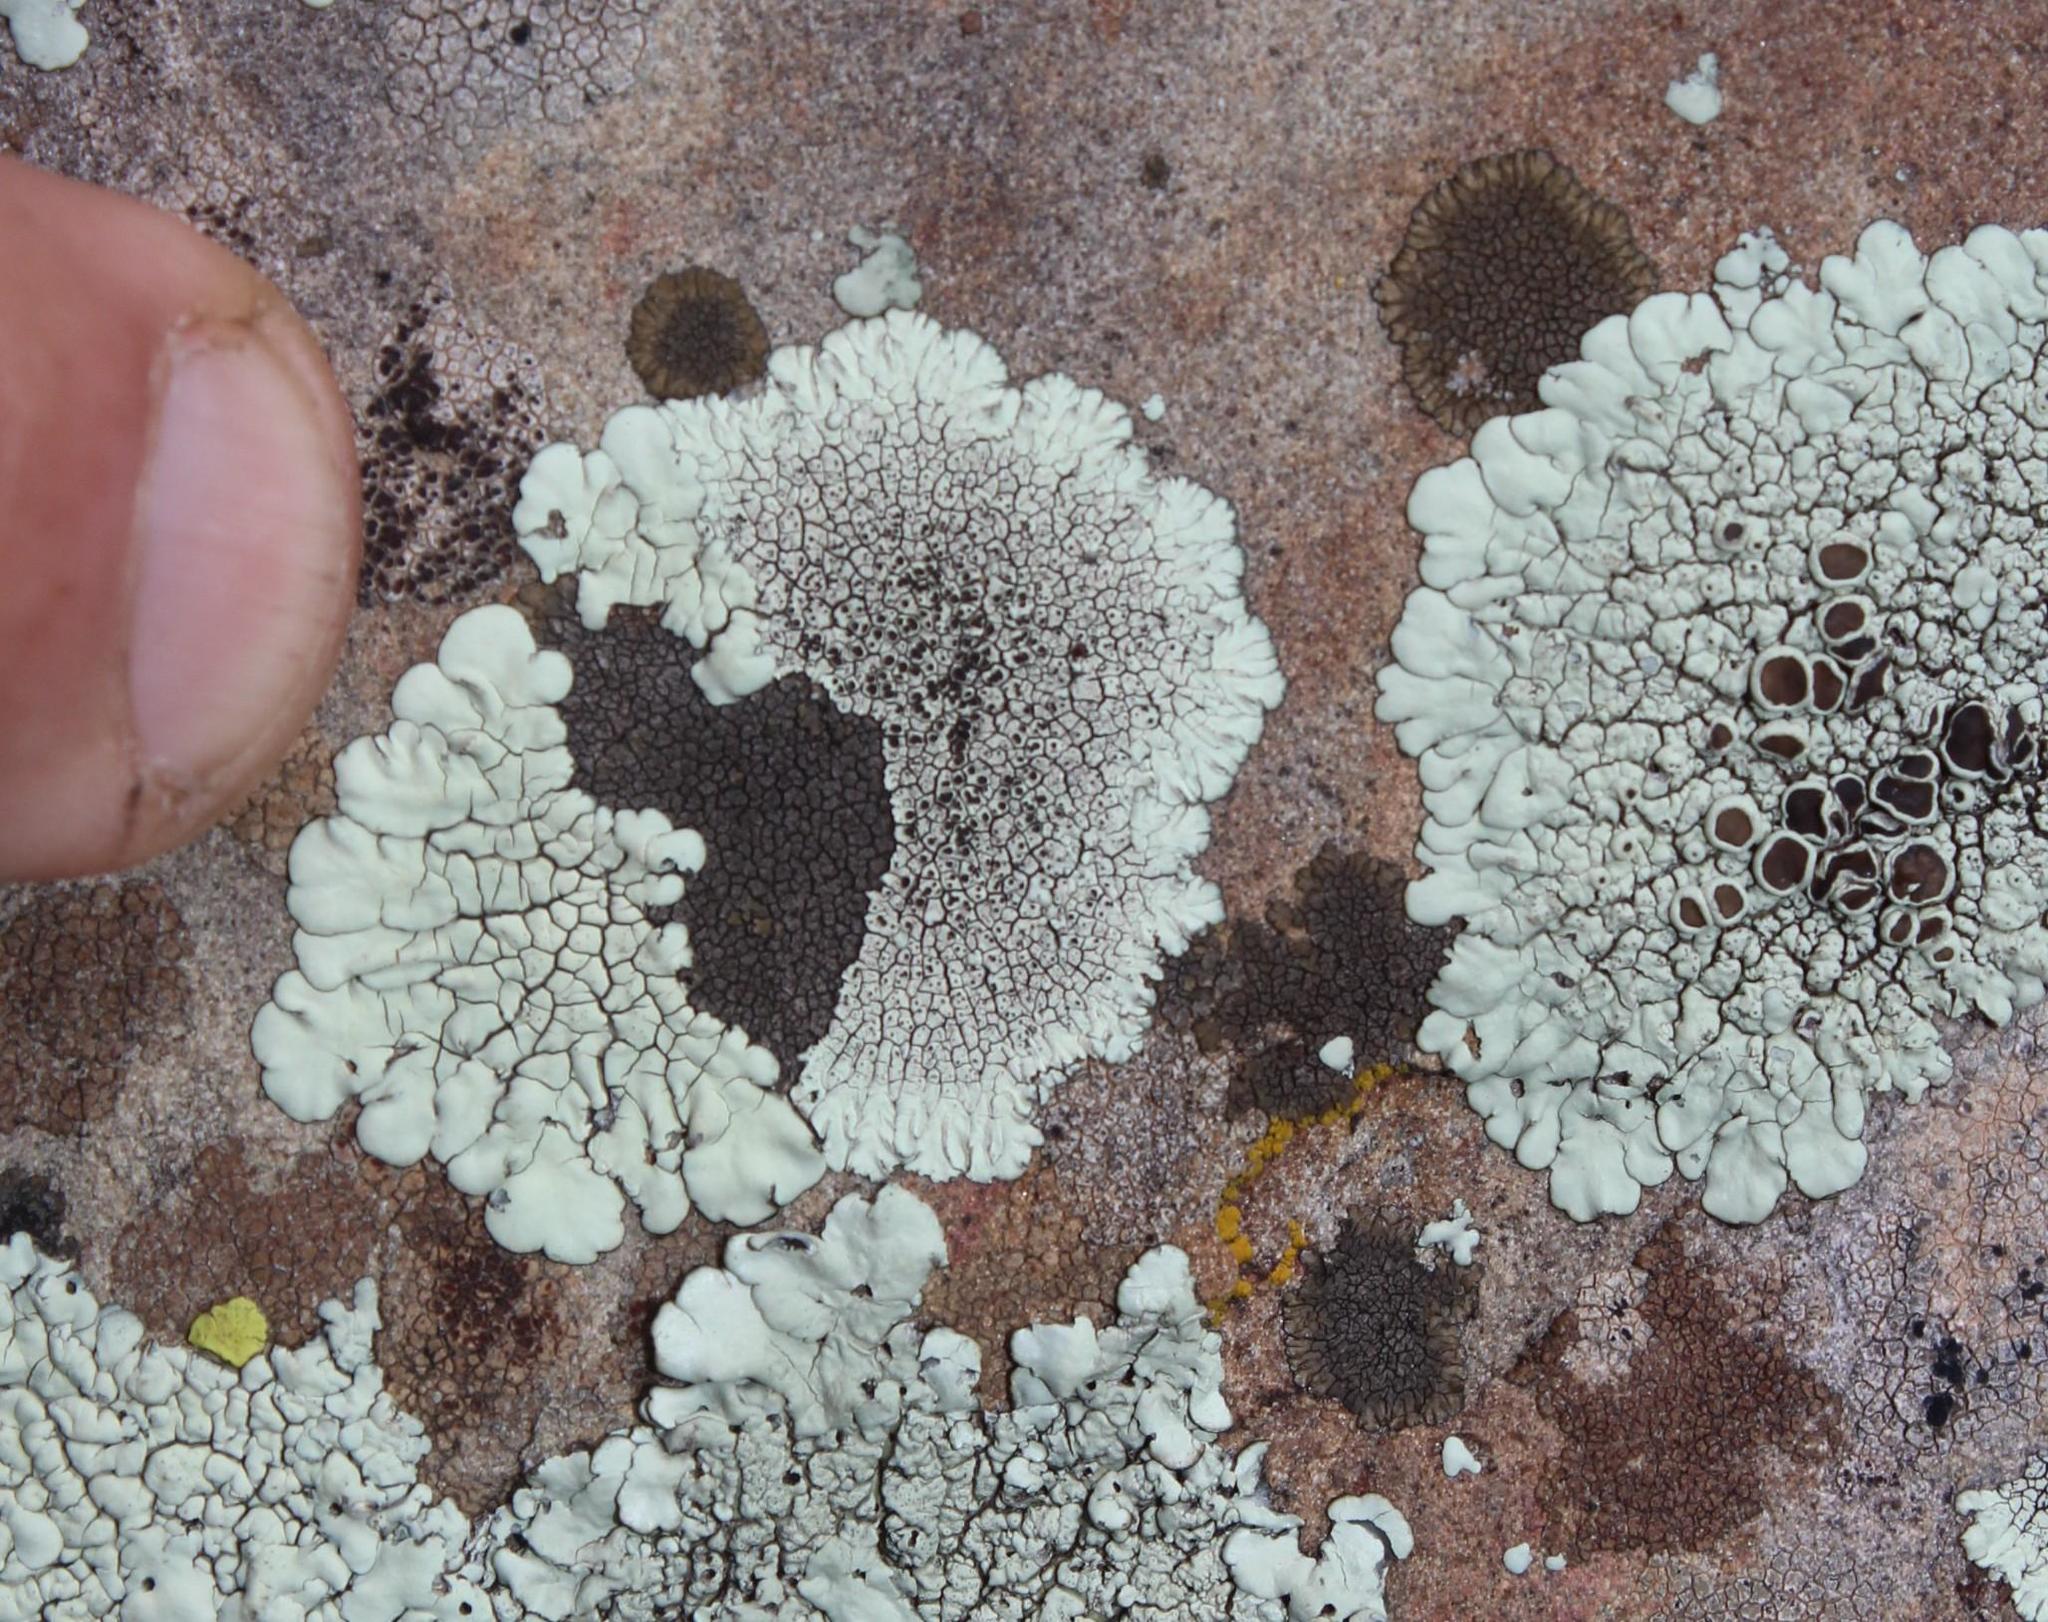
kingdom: Fungi
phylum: Ascomycota
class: Lecanoromycetes
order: Caliciales
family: Caliciaceae
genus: Dimelaena
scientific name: Dimelaena tenuis
